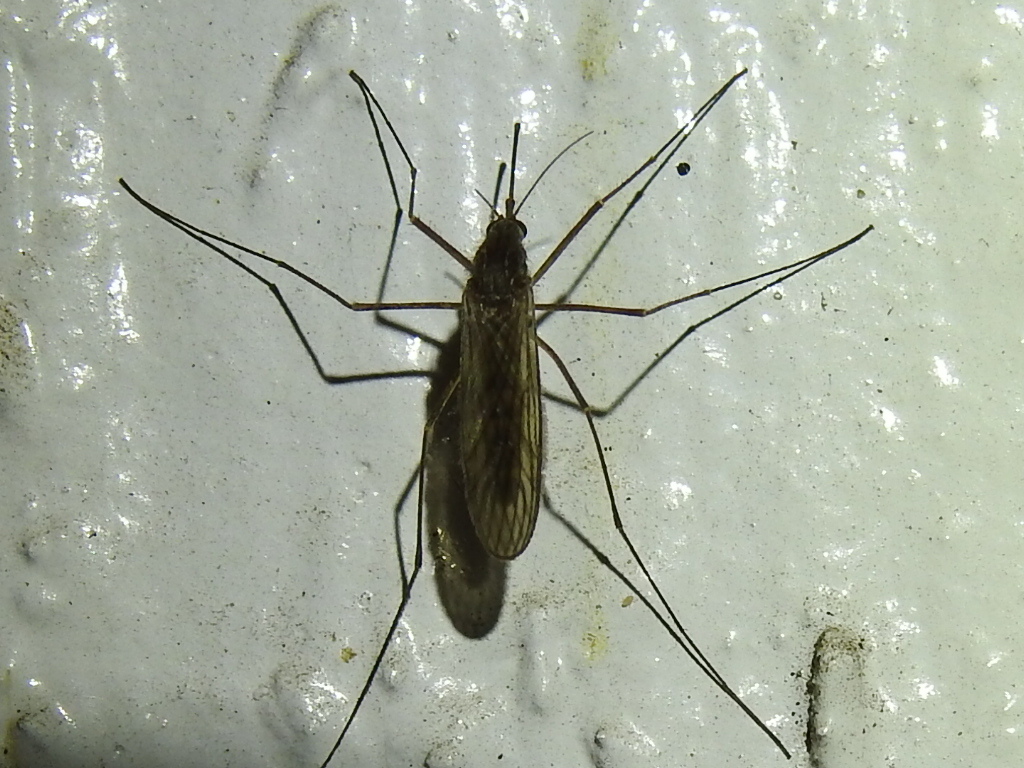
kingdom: Animalia
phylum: Arthropoda
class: Insecta
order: Diptera
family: Culicidae
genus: Culiseta
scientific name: Culiseta inornata
